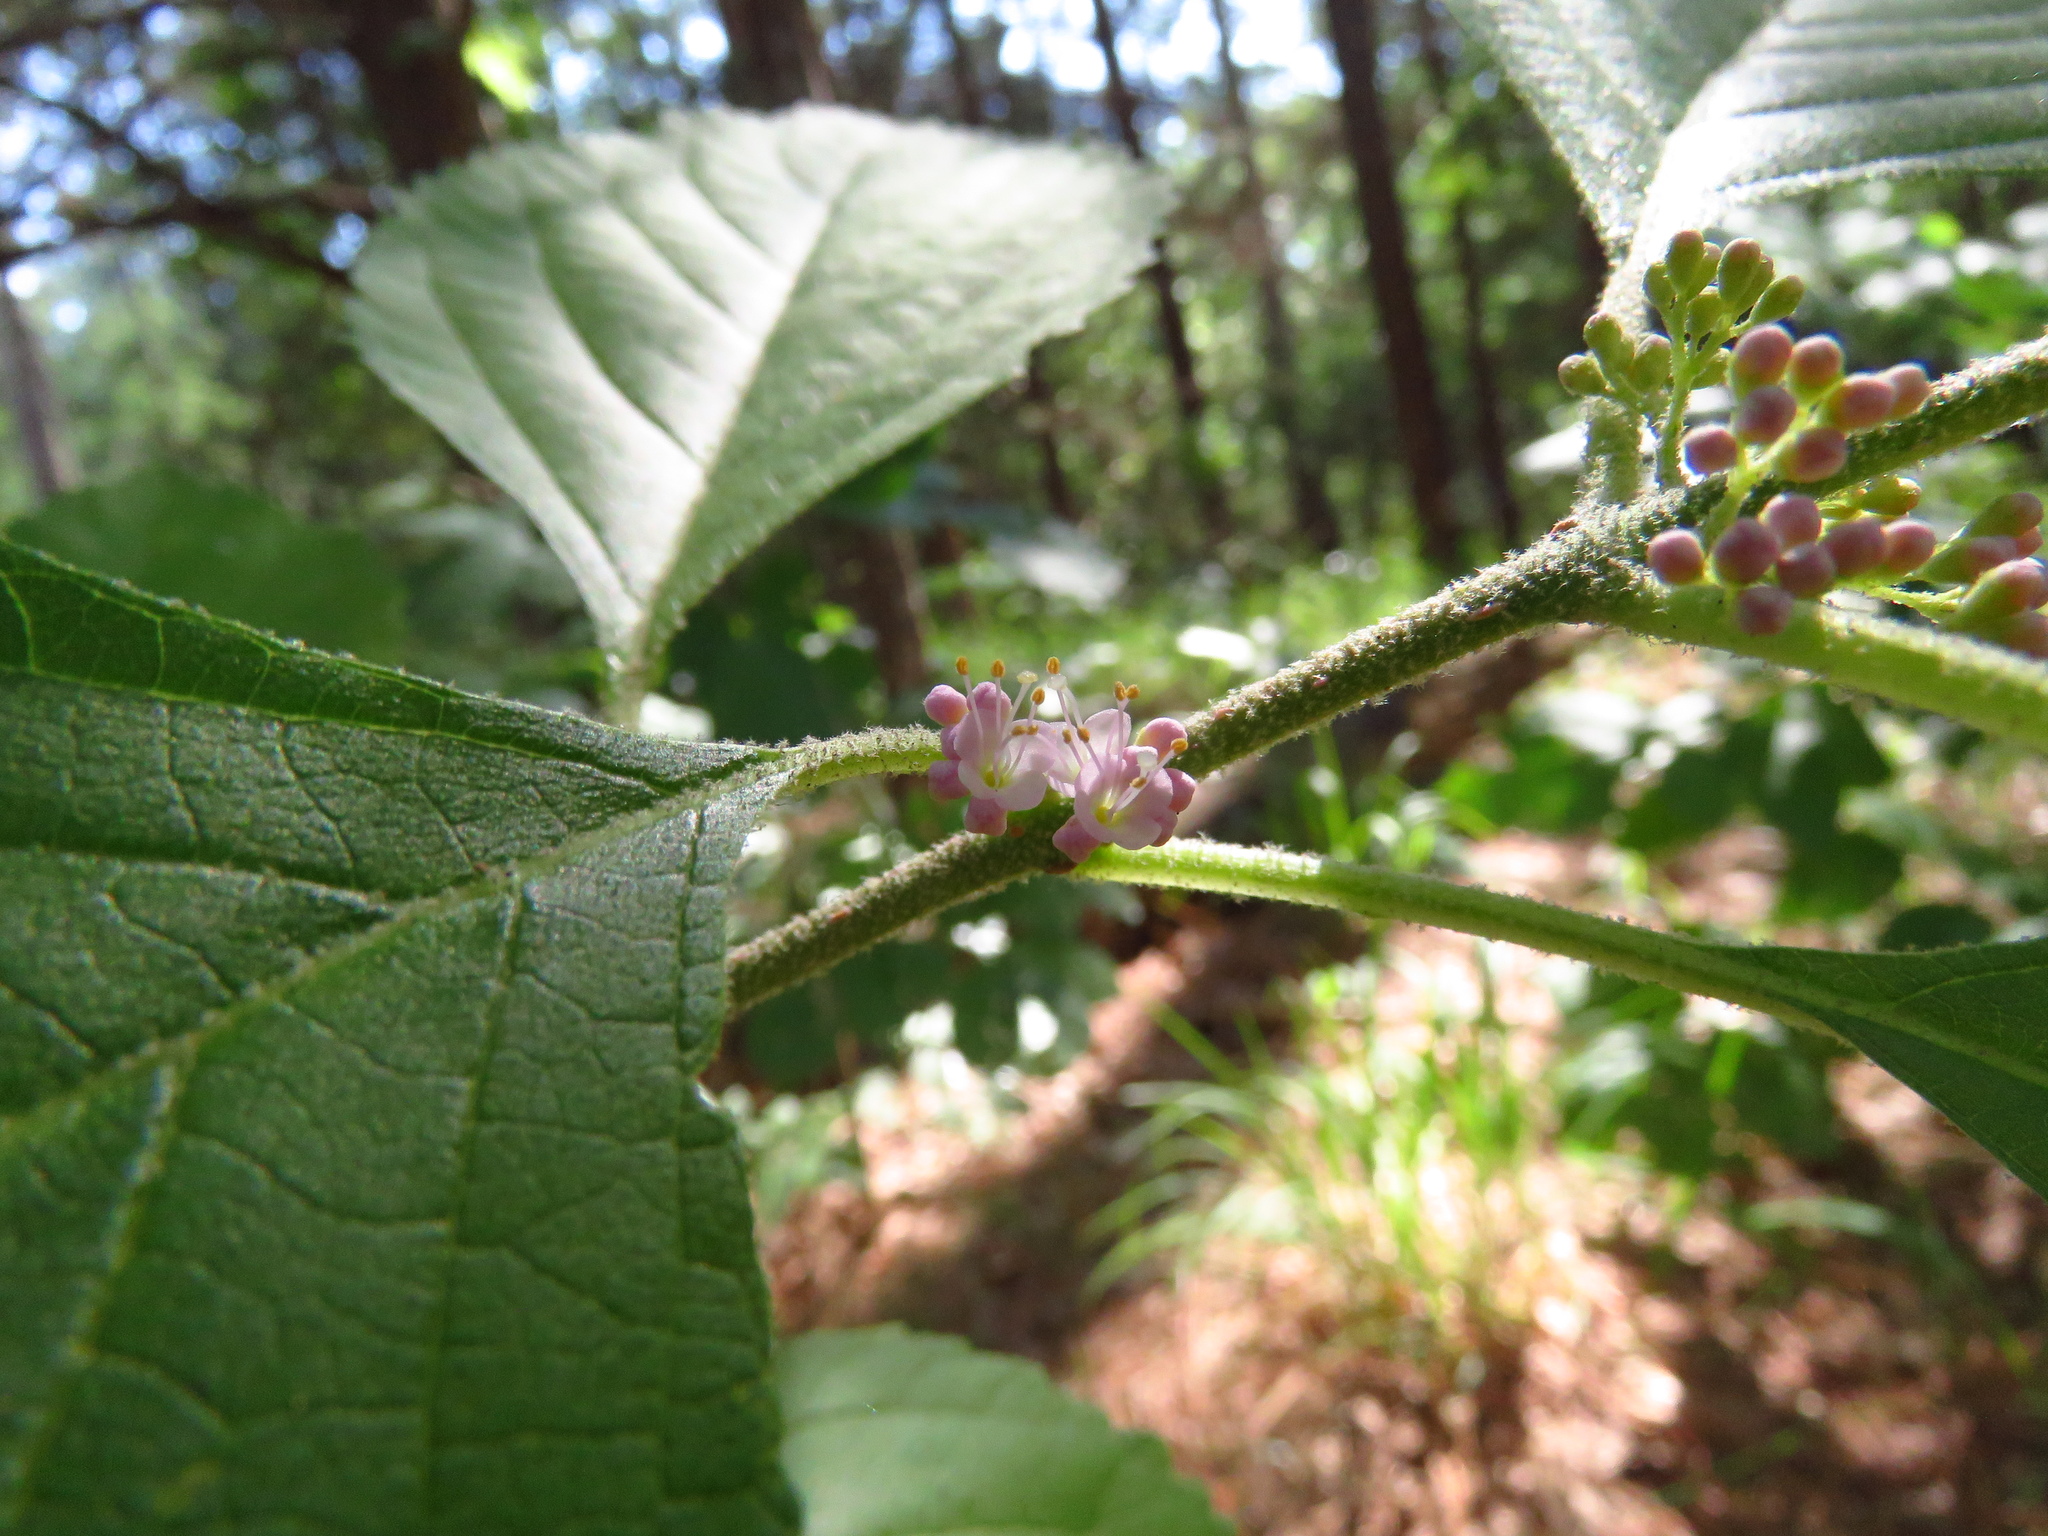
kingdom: Plantae
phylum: Tracheophyta
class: Magnoliopsida
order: Lamiales
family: Lamiaceae
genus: Callicarpa
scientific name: Callicarpa americana
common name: American beautyberry
